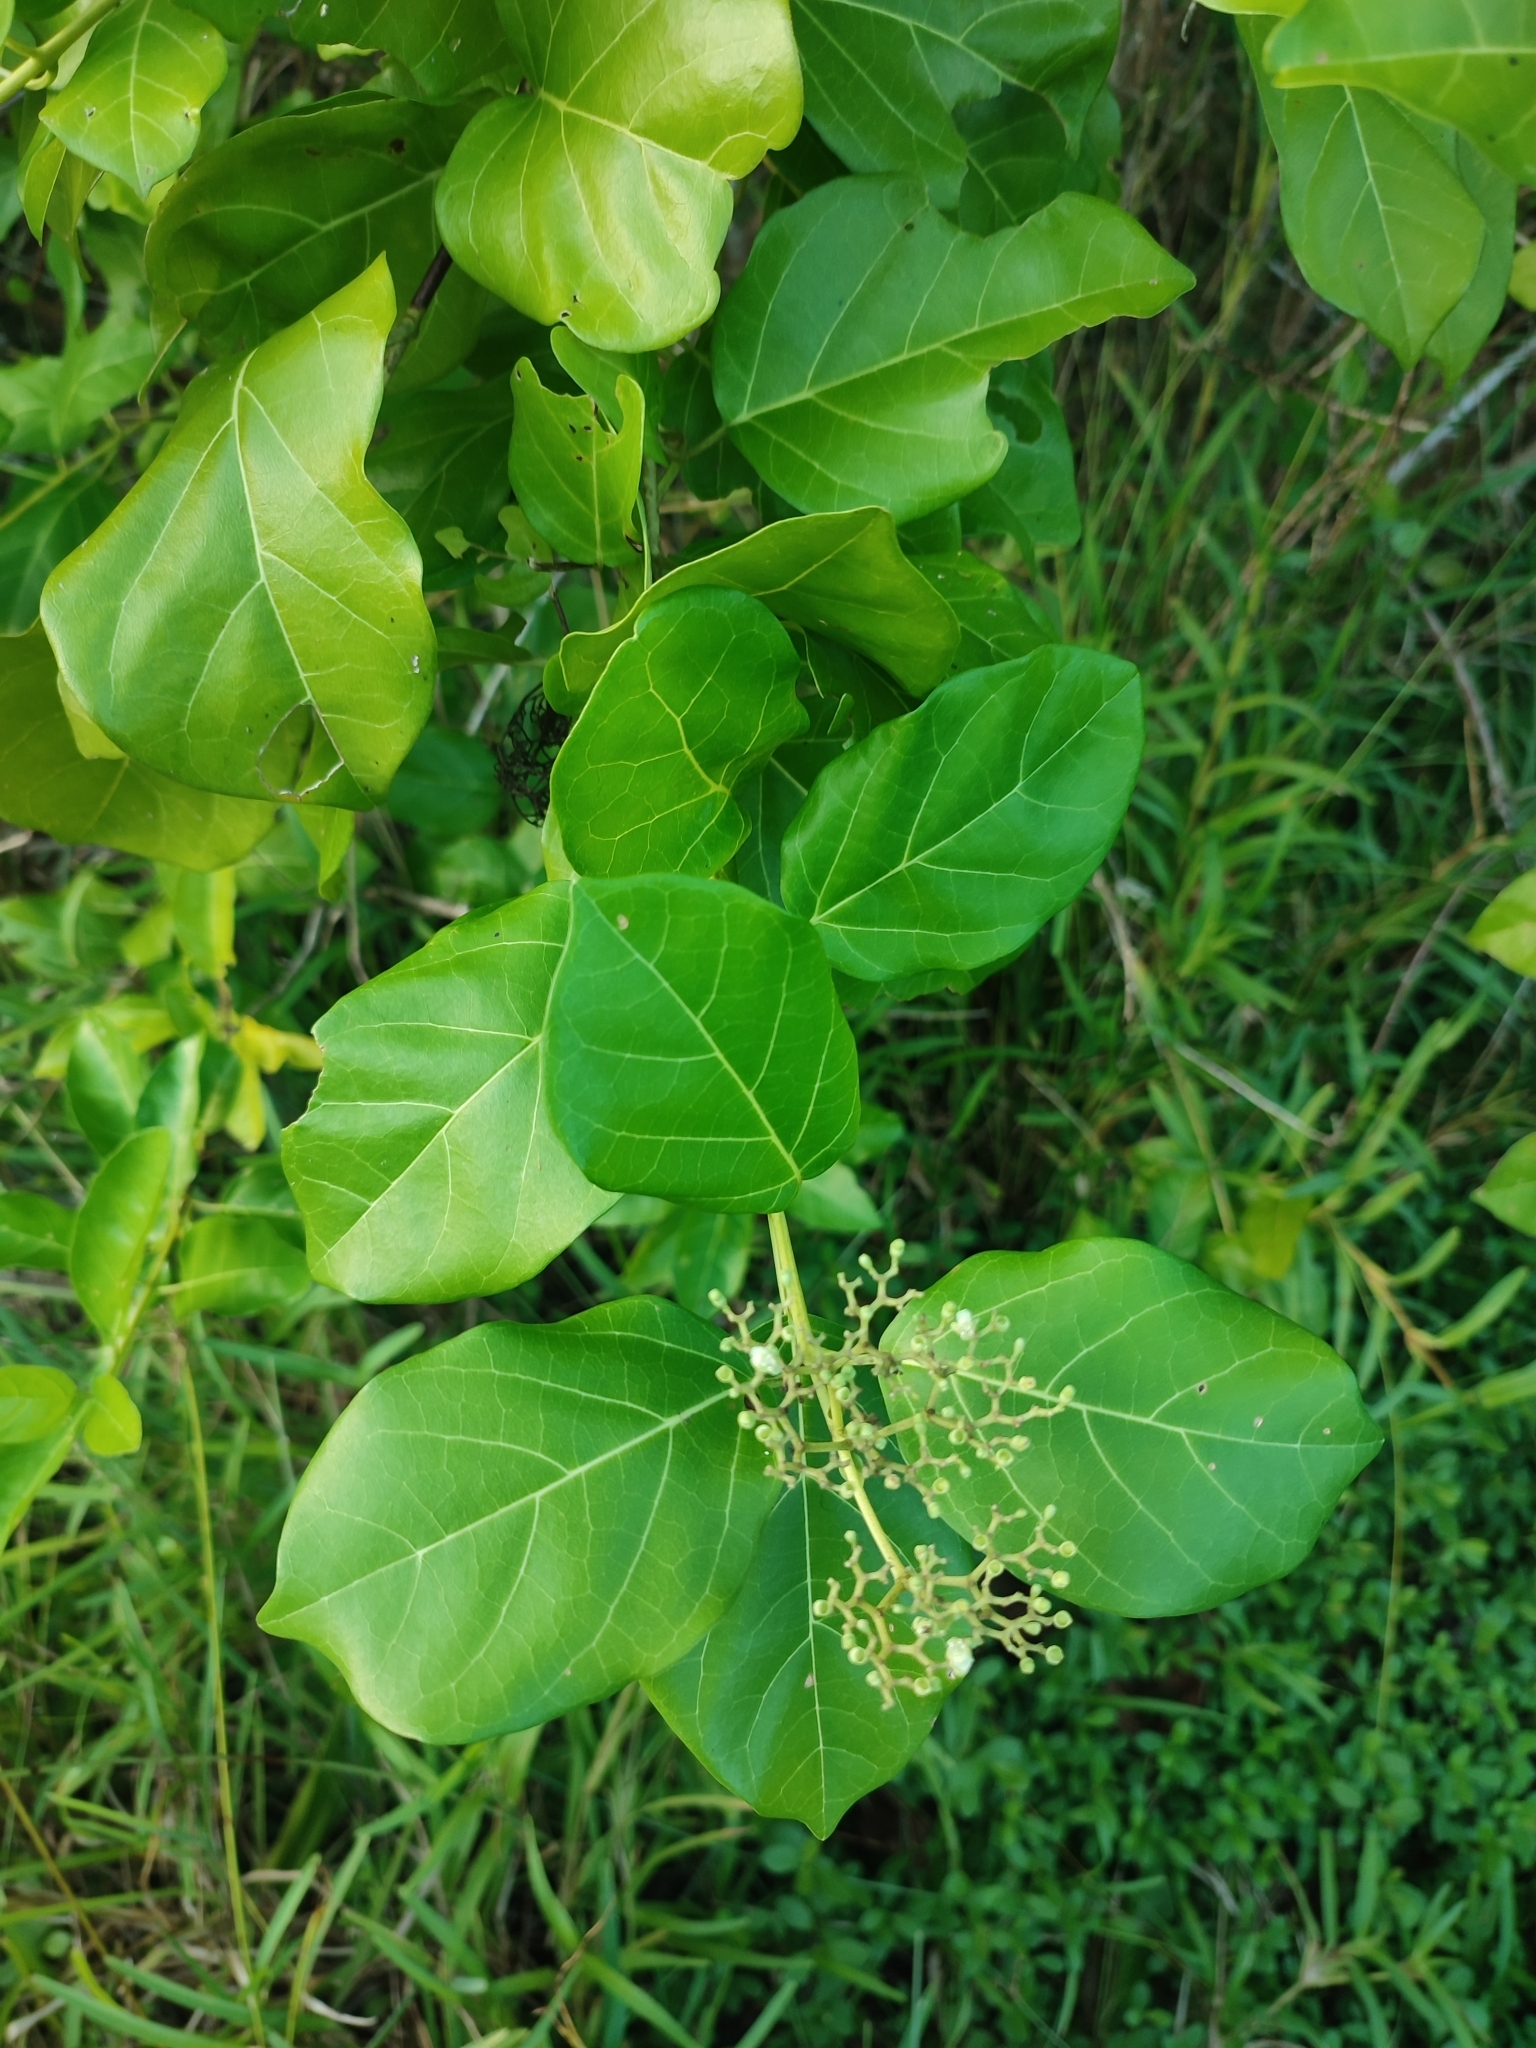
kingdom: Plantae
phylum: Tracheophyta
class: Magnoliopsida
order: Lamiales
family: Lamiaceae
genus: Premna
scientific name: Premna serratifolia
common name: Bastard guelder
